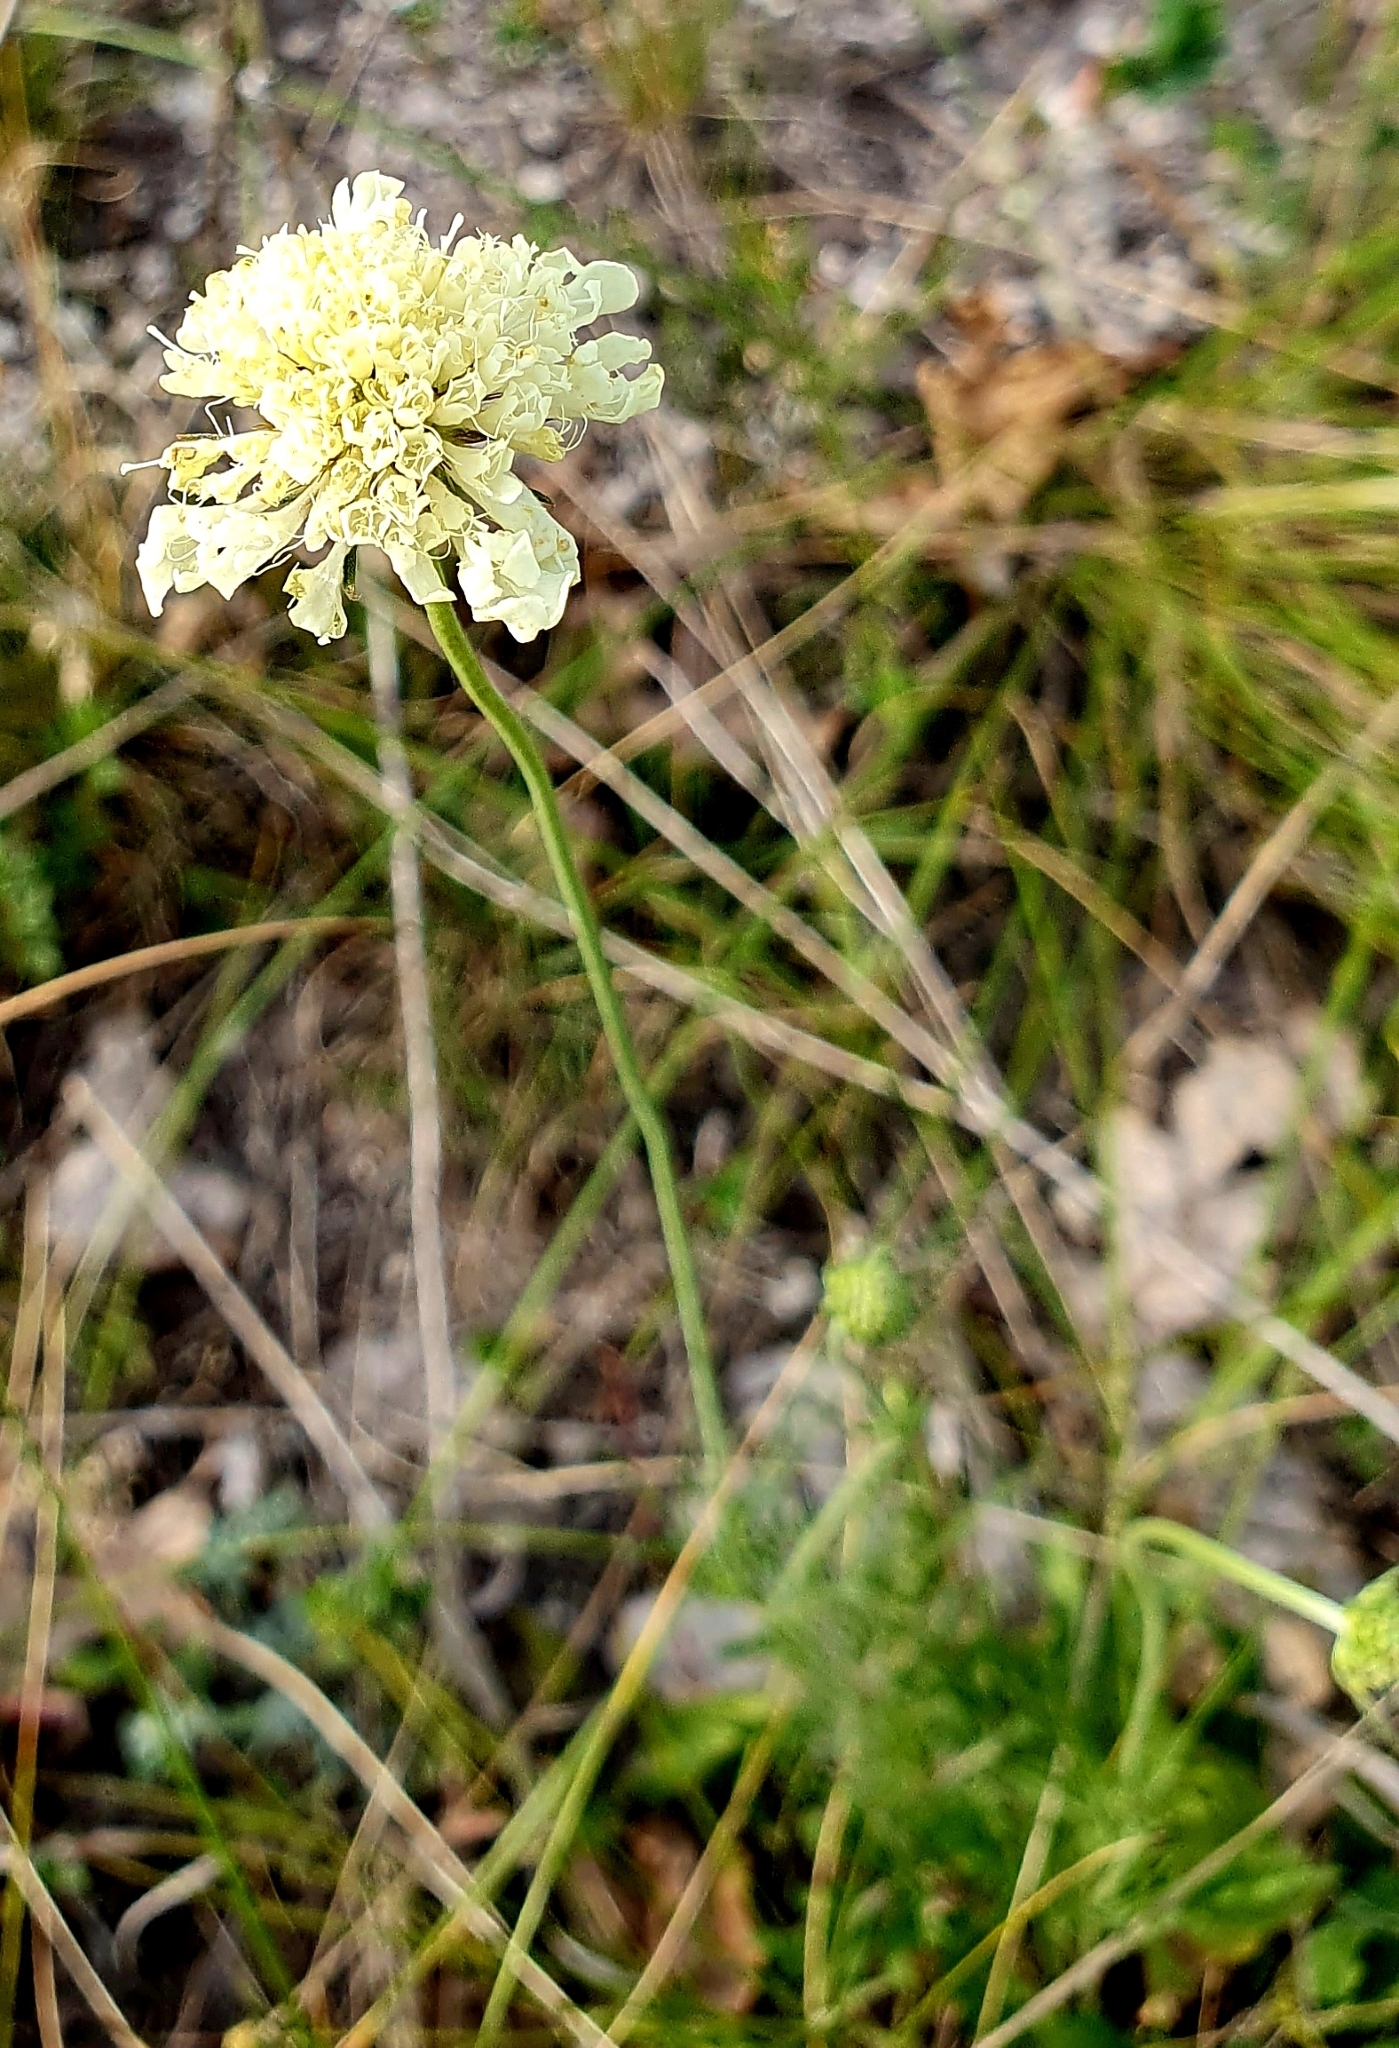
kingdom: Plantae
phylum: Tracheophyta
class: Magnoliopsida
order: Dipsacales
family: Caprifoliaceae
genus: Scabiosa
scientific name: Scabiosa ochroleuca
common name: Cream pincushions
